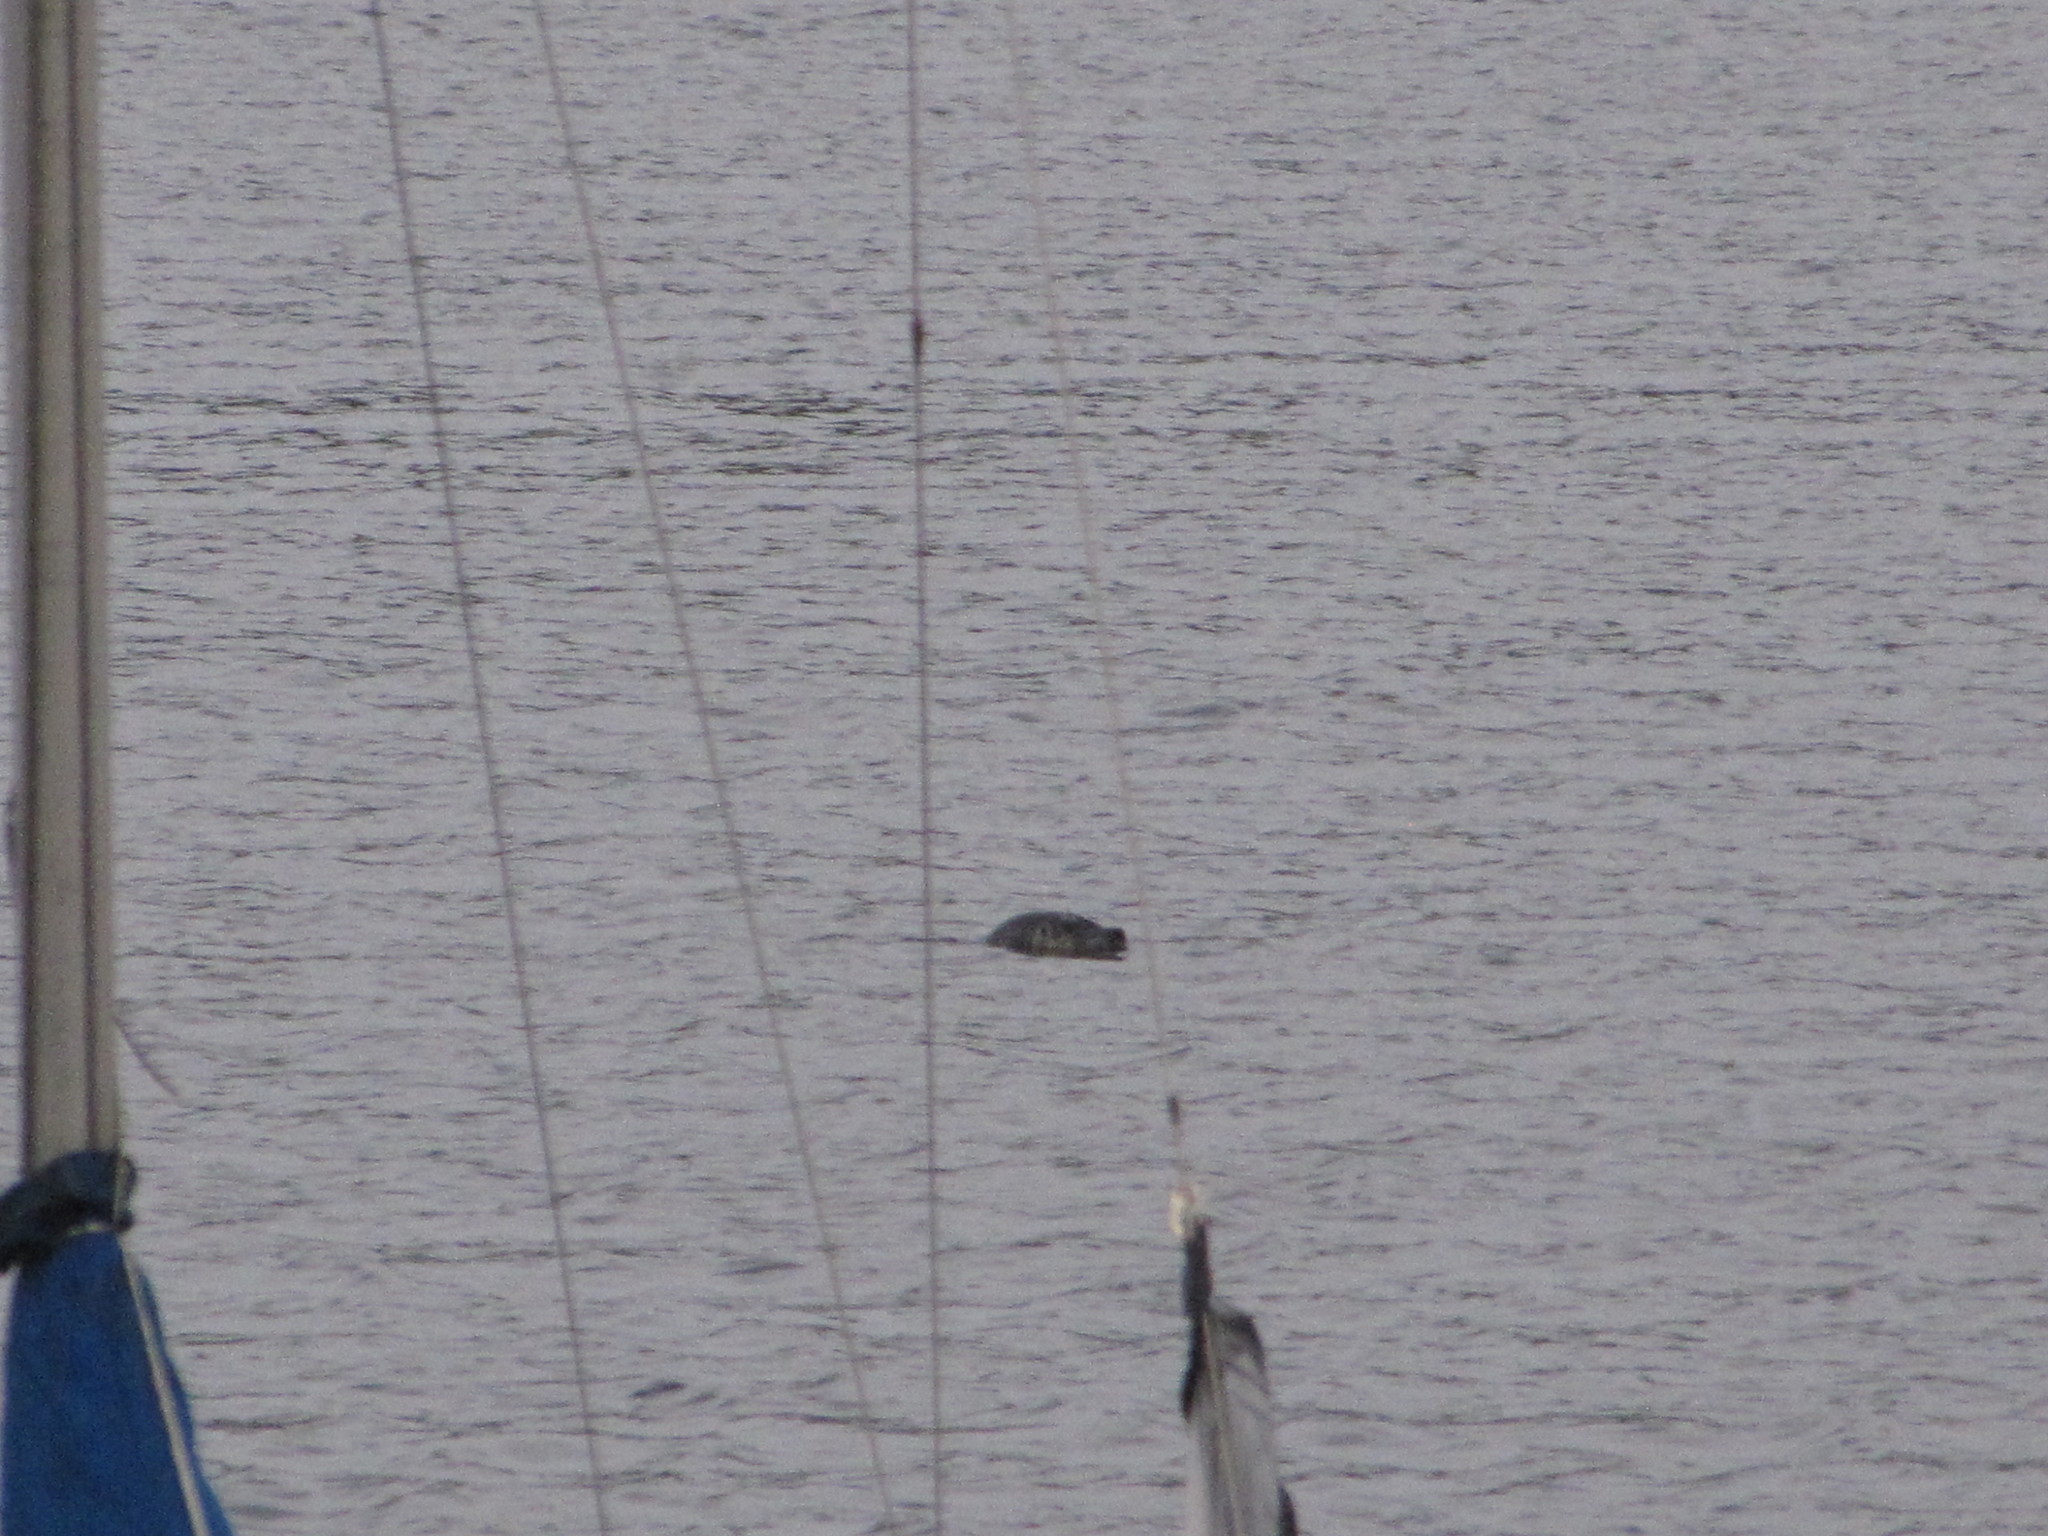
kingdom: Animalia
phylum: Chordata
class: Mammalia
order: Carnivora
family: Phocidae
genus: Phoca
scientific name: Phoca vitulina
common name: Harbor seal
